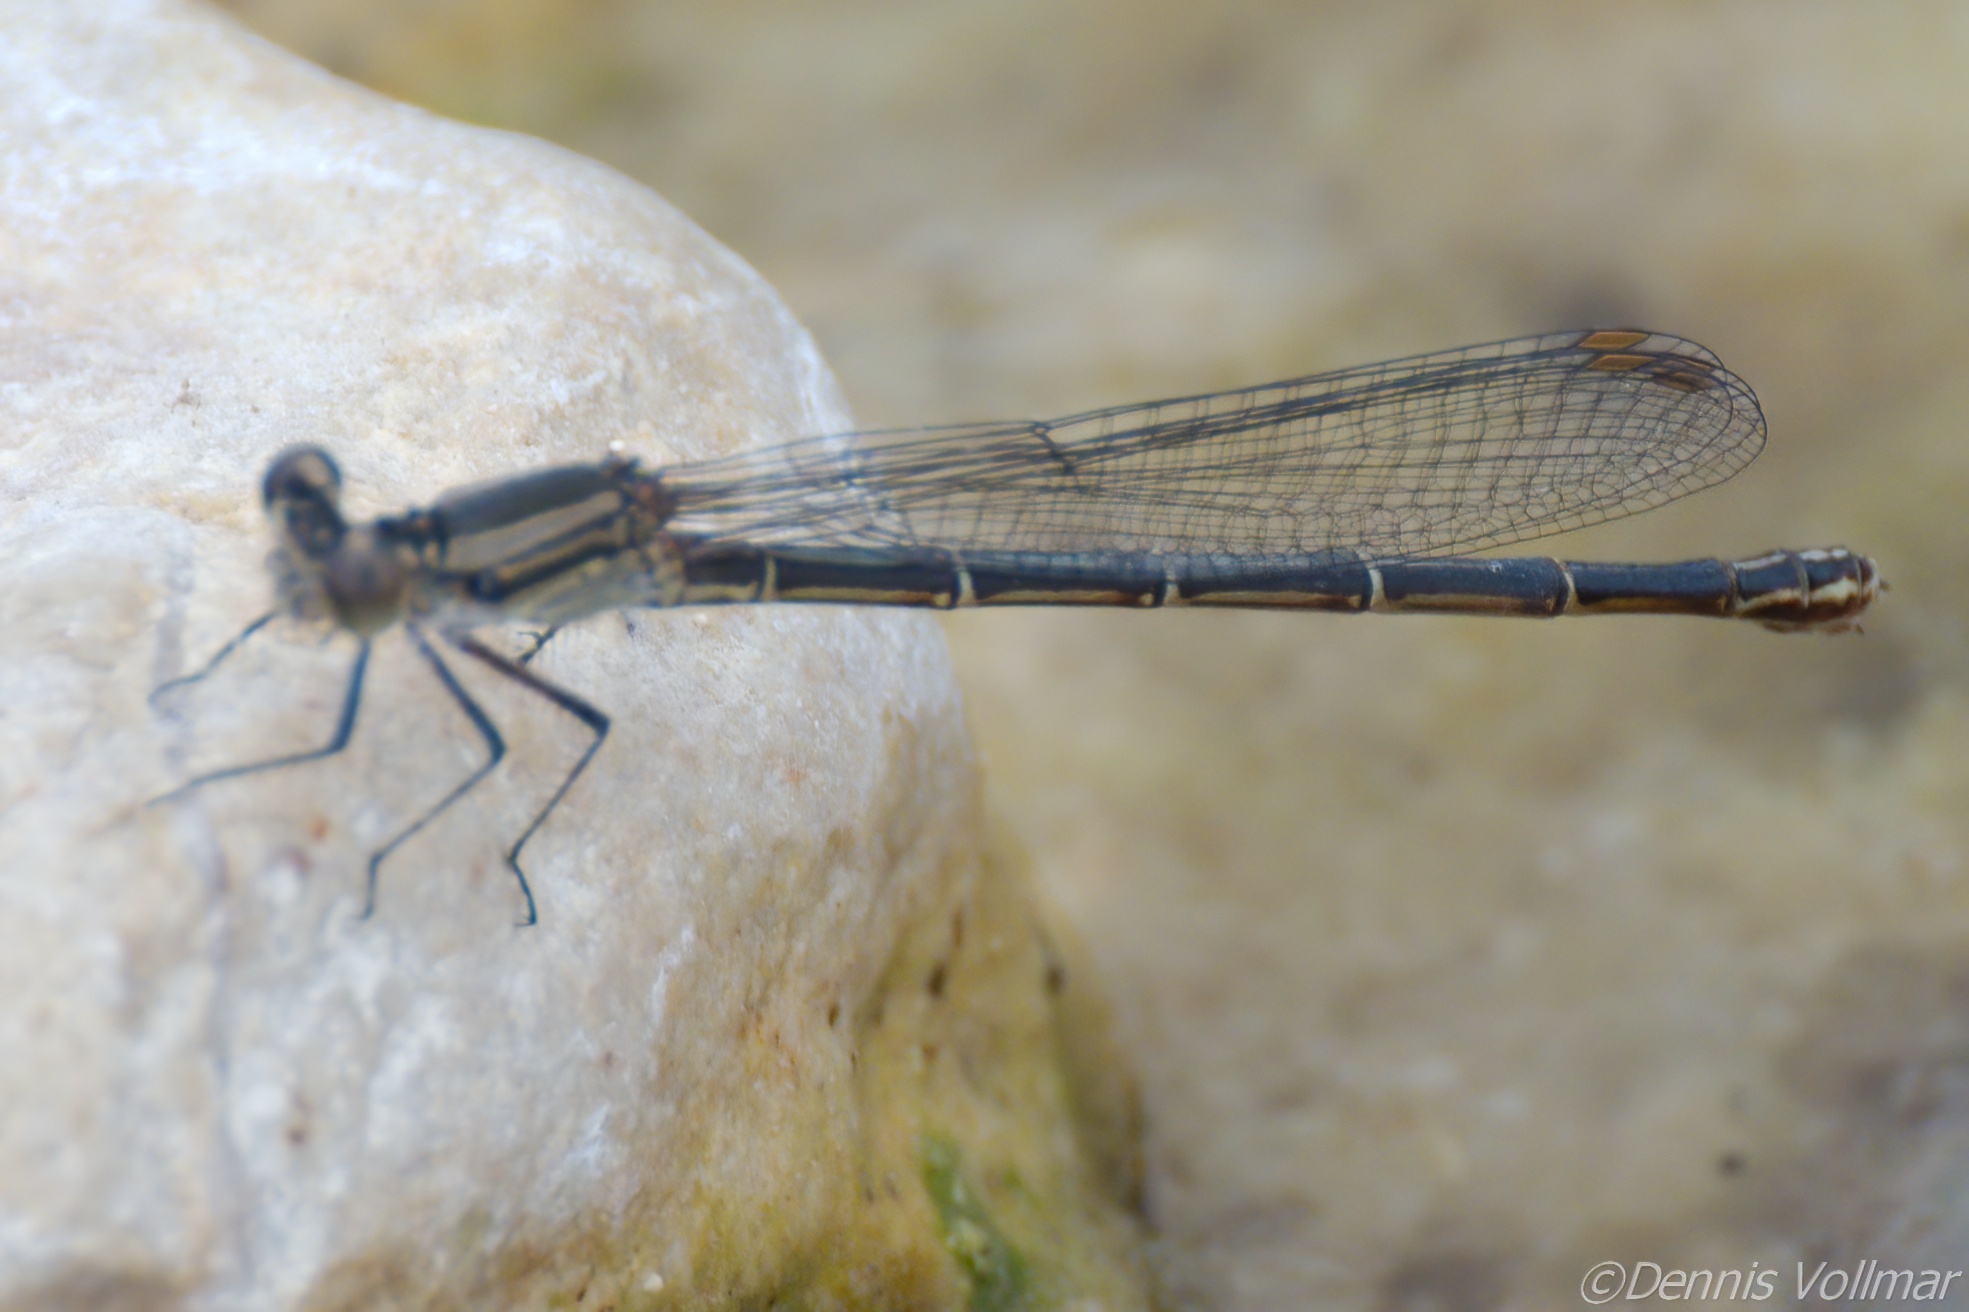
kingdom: Animalia
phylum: Arthropoda
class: Insecta
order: Odonata
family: Coenagrionidae
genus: Argia
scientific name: Argia translata
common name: Dusky dancer
